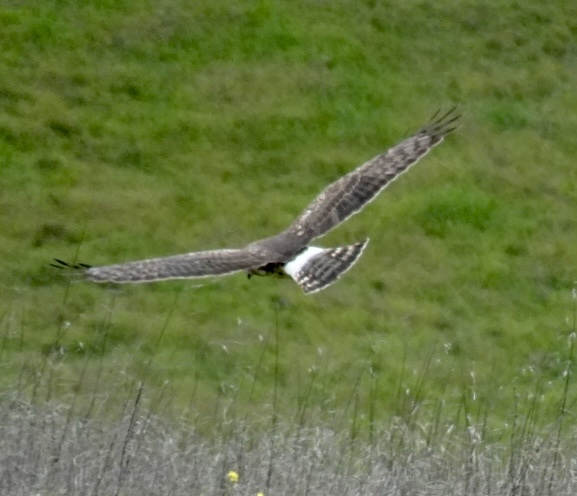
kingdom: Animalia
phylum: Chordata
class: Aves
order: Accipitriformes
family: Accipitridae
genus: Circus
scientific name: Circus cyaneus
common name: Hen harrier
